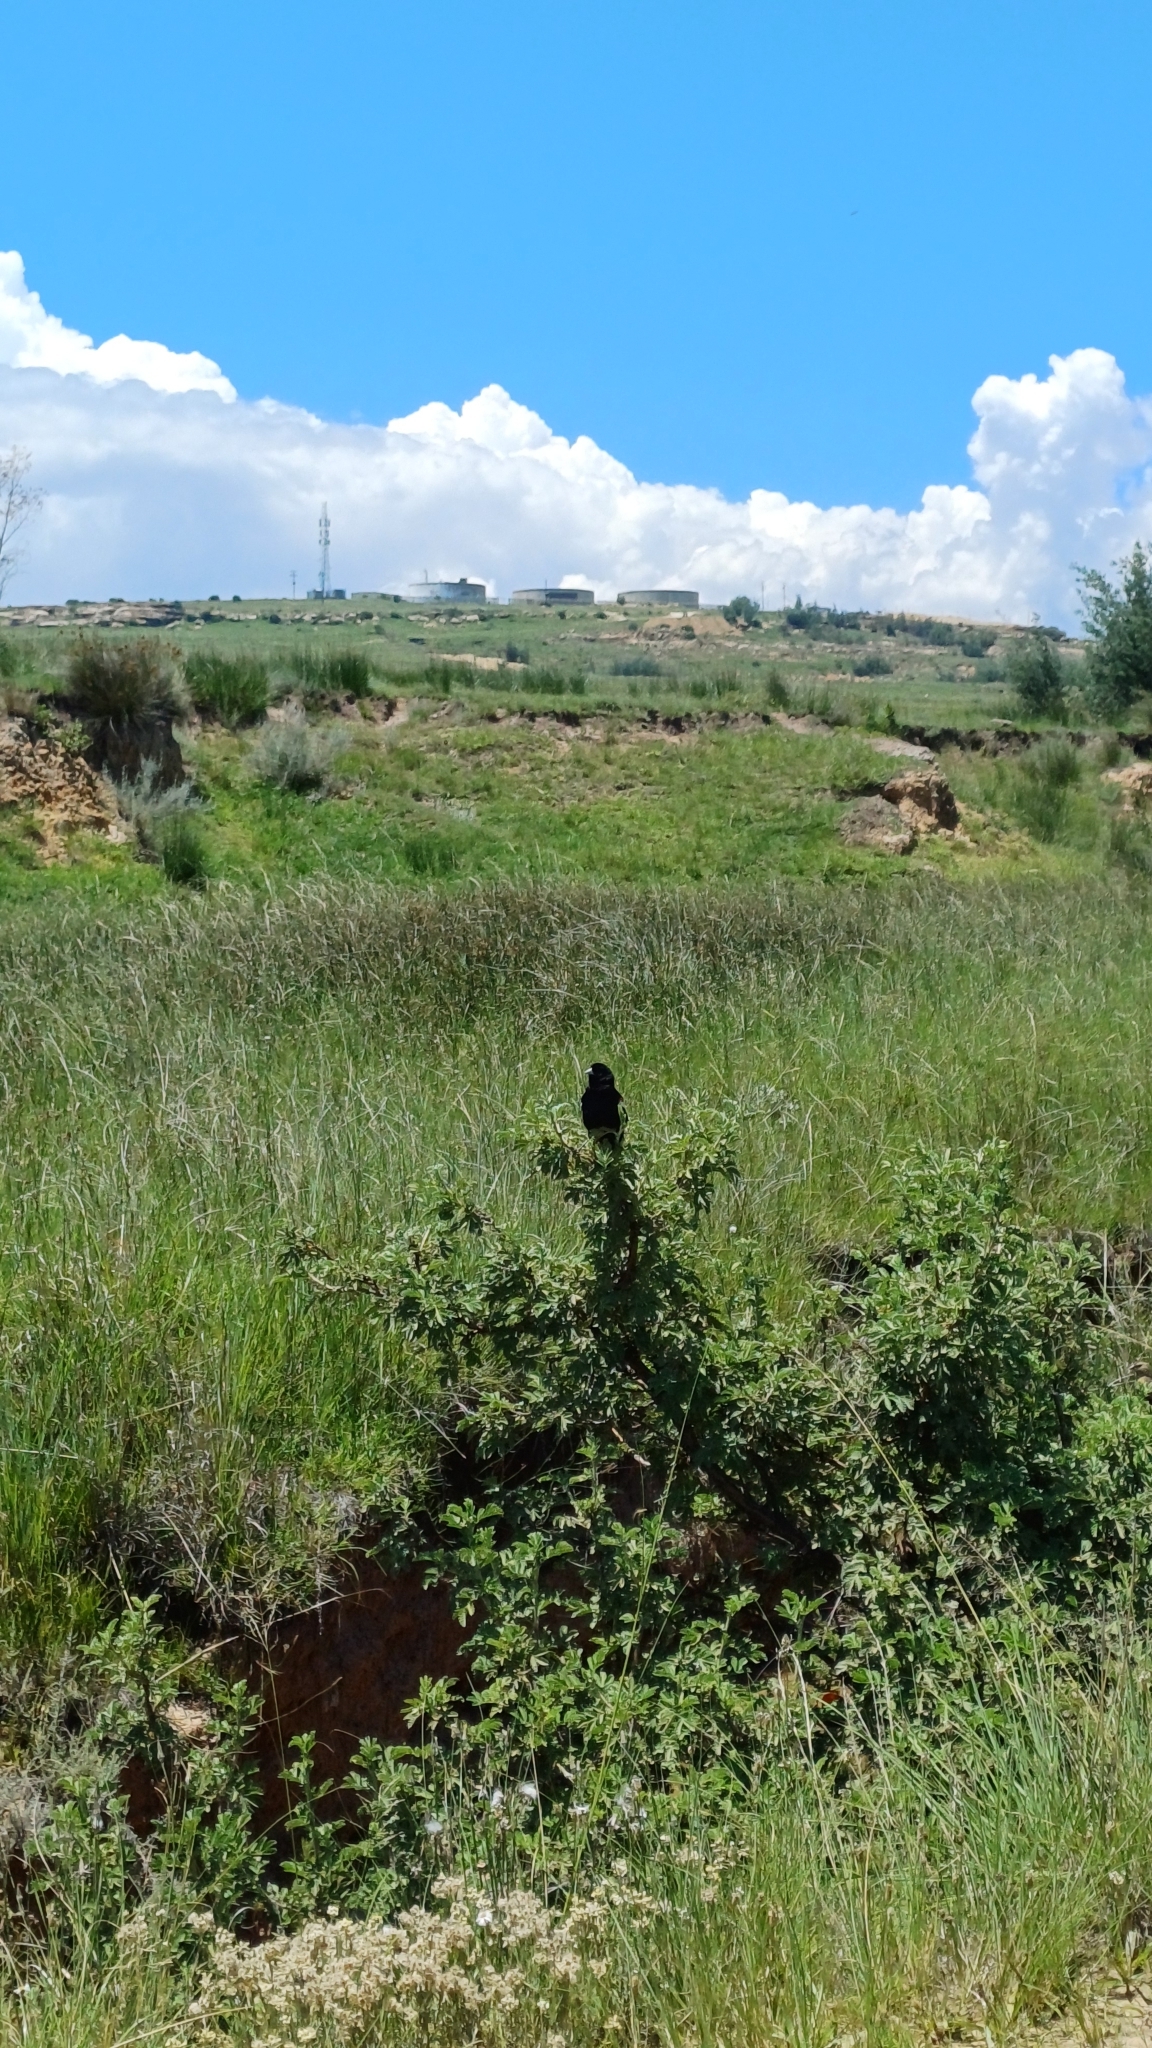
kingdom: Animalia
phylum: Chordata
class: Aves
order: Passeriformes
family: Ploceidae
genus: Euplectes
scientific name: Euplectes progne
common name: Long-tailed widowbird
